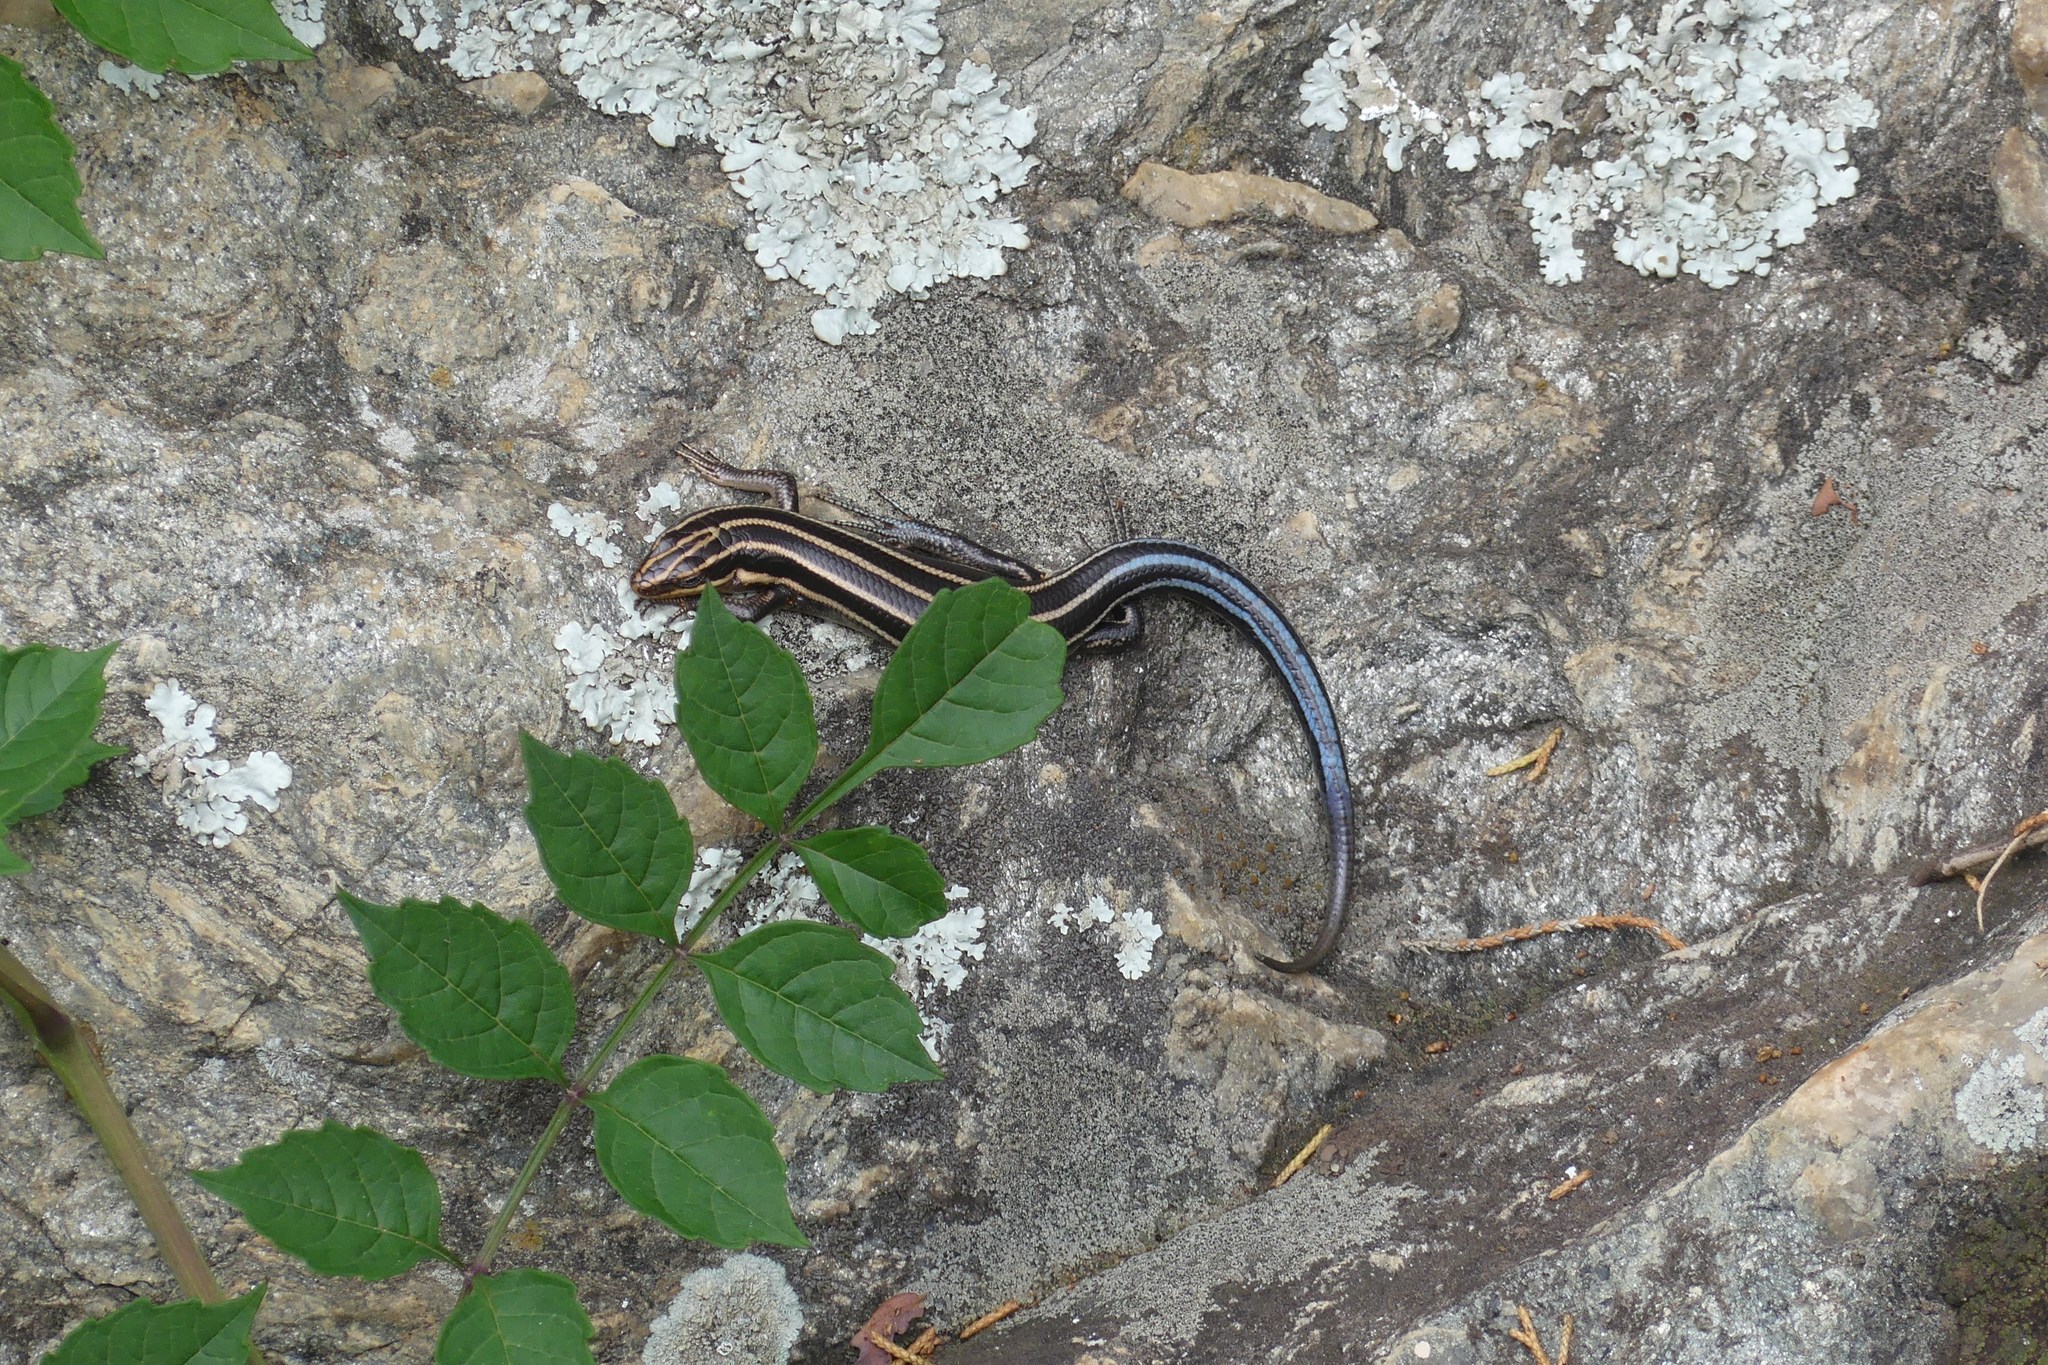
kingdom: Animalia
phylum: Chordata
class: Squamata
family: Scincidae
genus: Plestiodon
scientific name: Plestiodon fasciatus
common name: Five-lined skink
